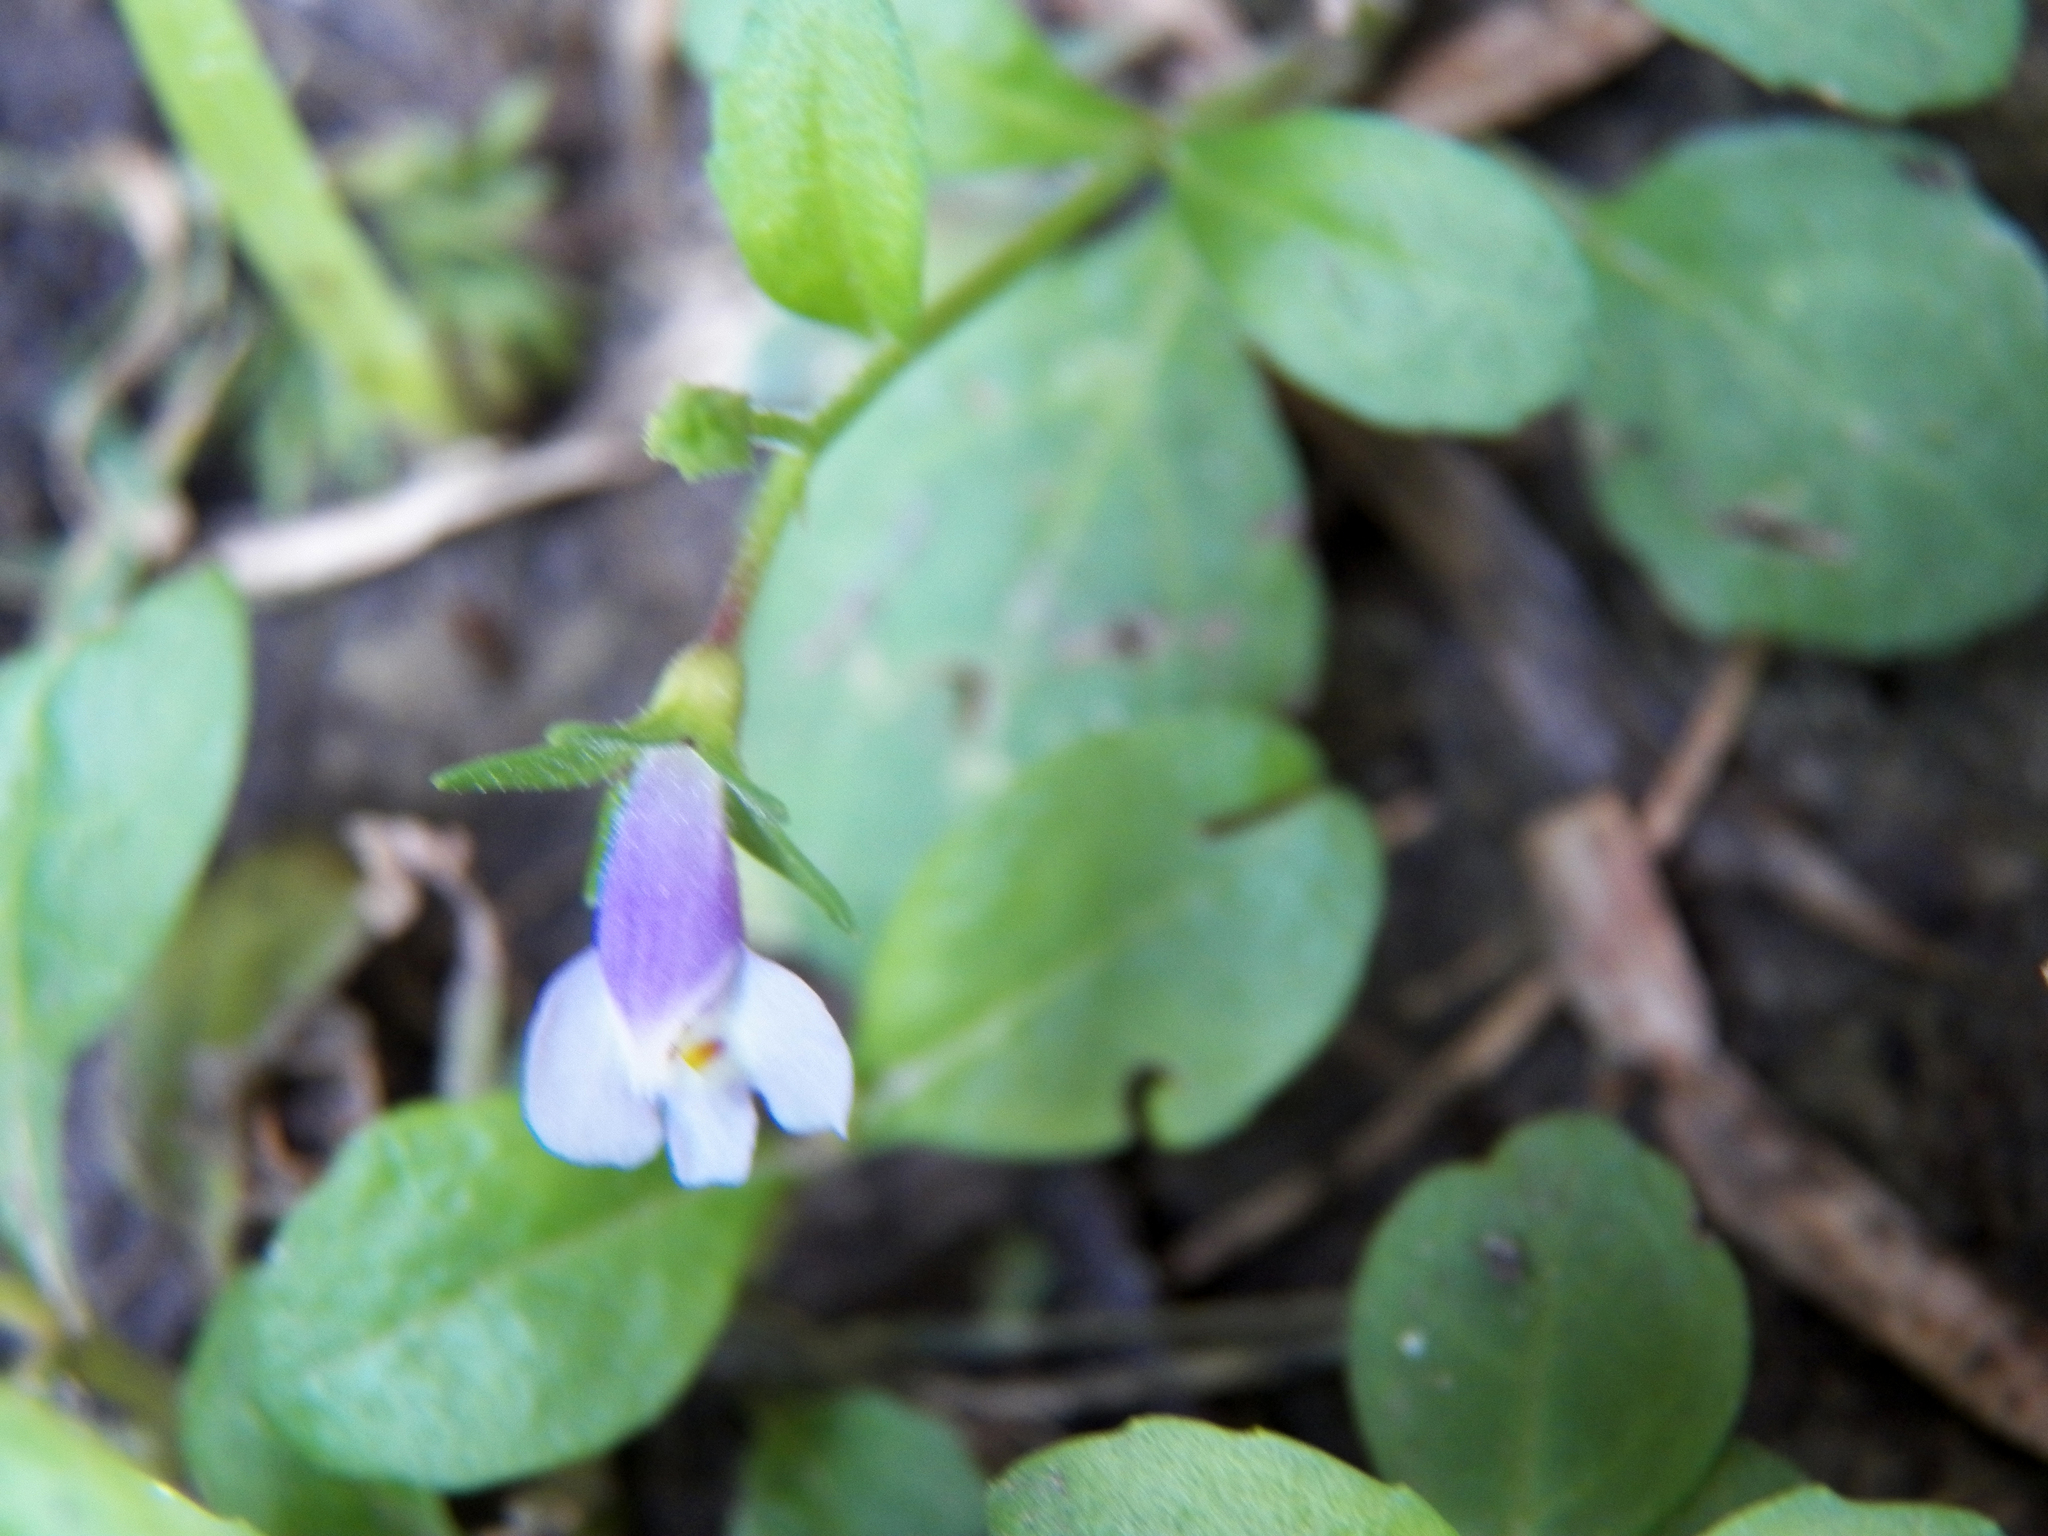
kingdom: Plantae
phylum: Tracheophyta
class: Magnoliopsida
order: Lamiales
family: Mazaceae
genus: Mazus
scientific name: Mazus pumilus
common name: Japanese mazus
